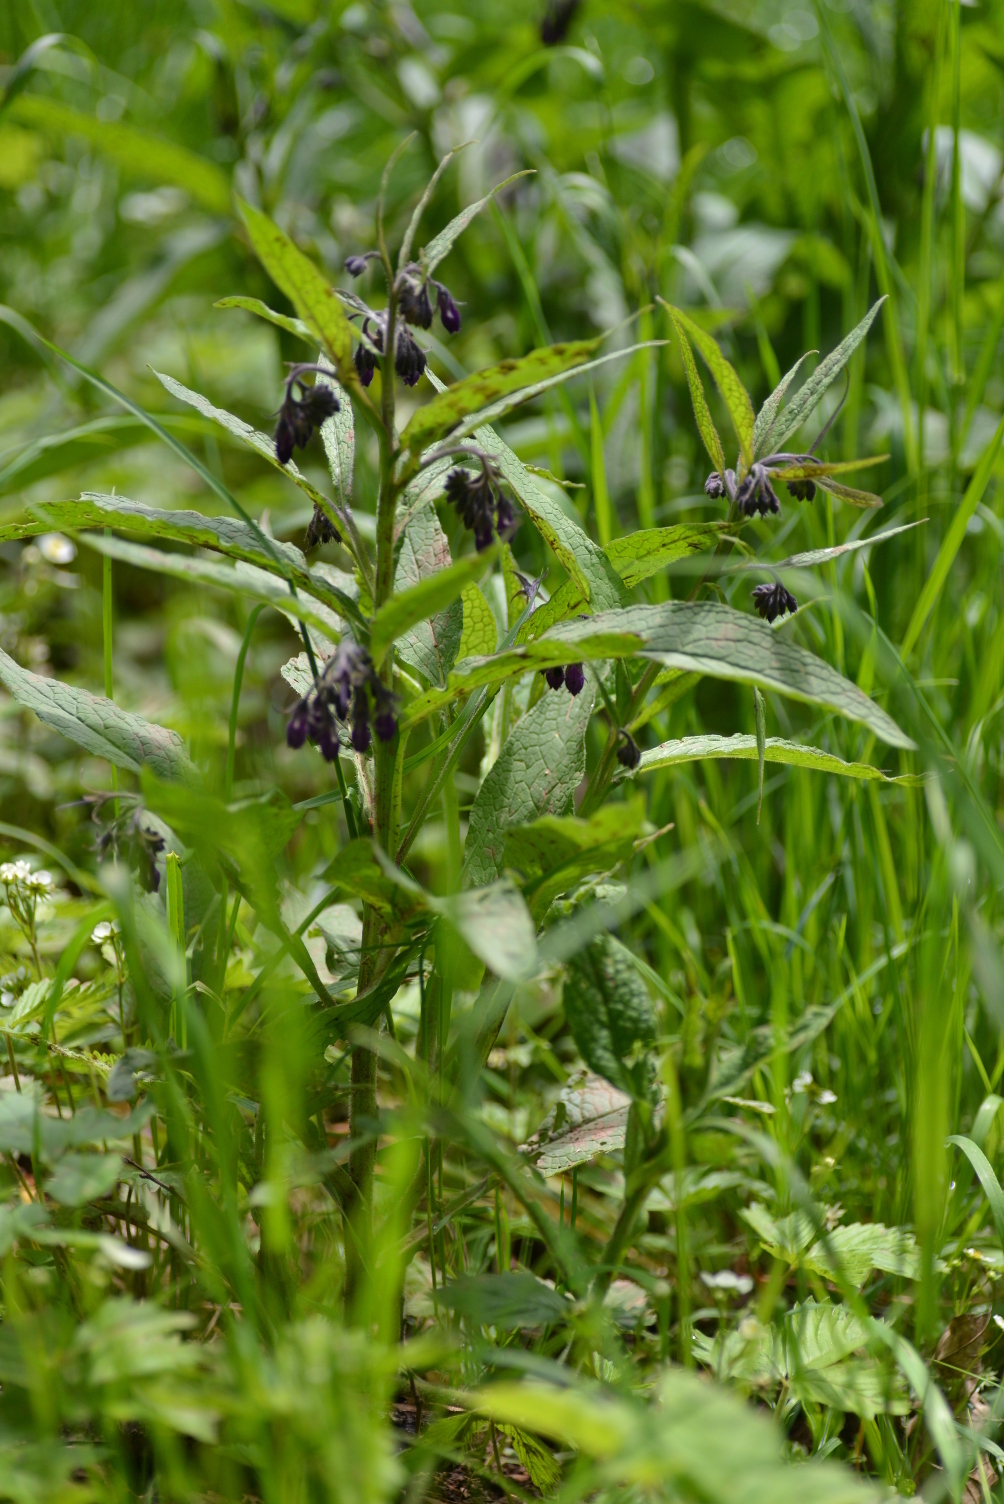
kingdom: Plantae
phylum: Tracheophyta
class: Magnoliopsida
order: Boraginales
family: Boraginaceae
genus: Symphytum
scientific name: Symphytum officinale
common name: Common comfrey
